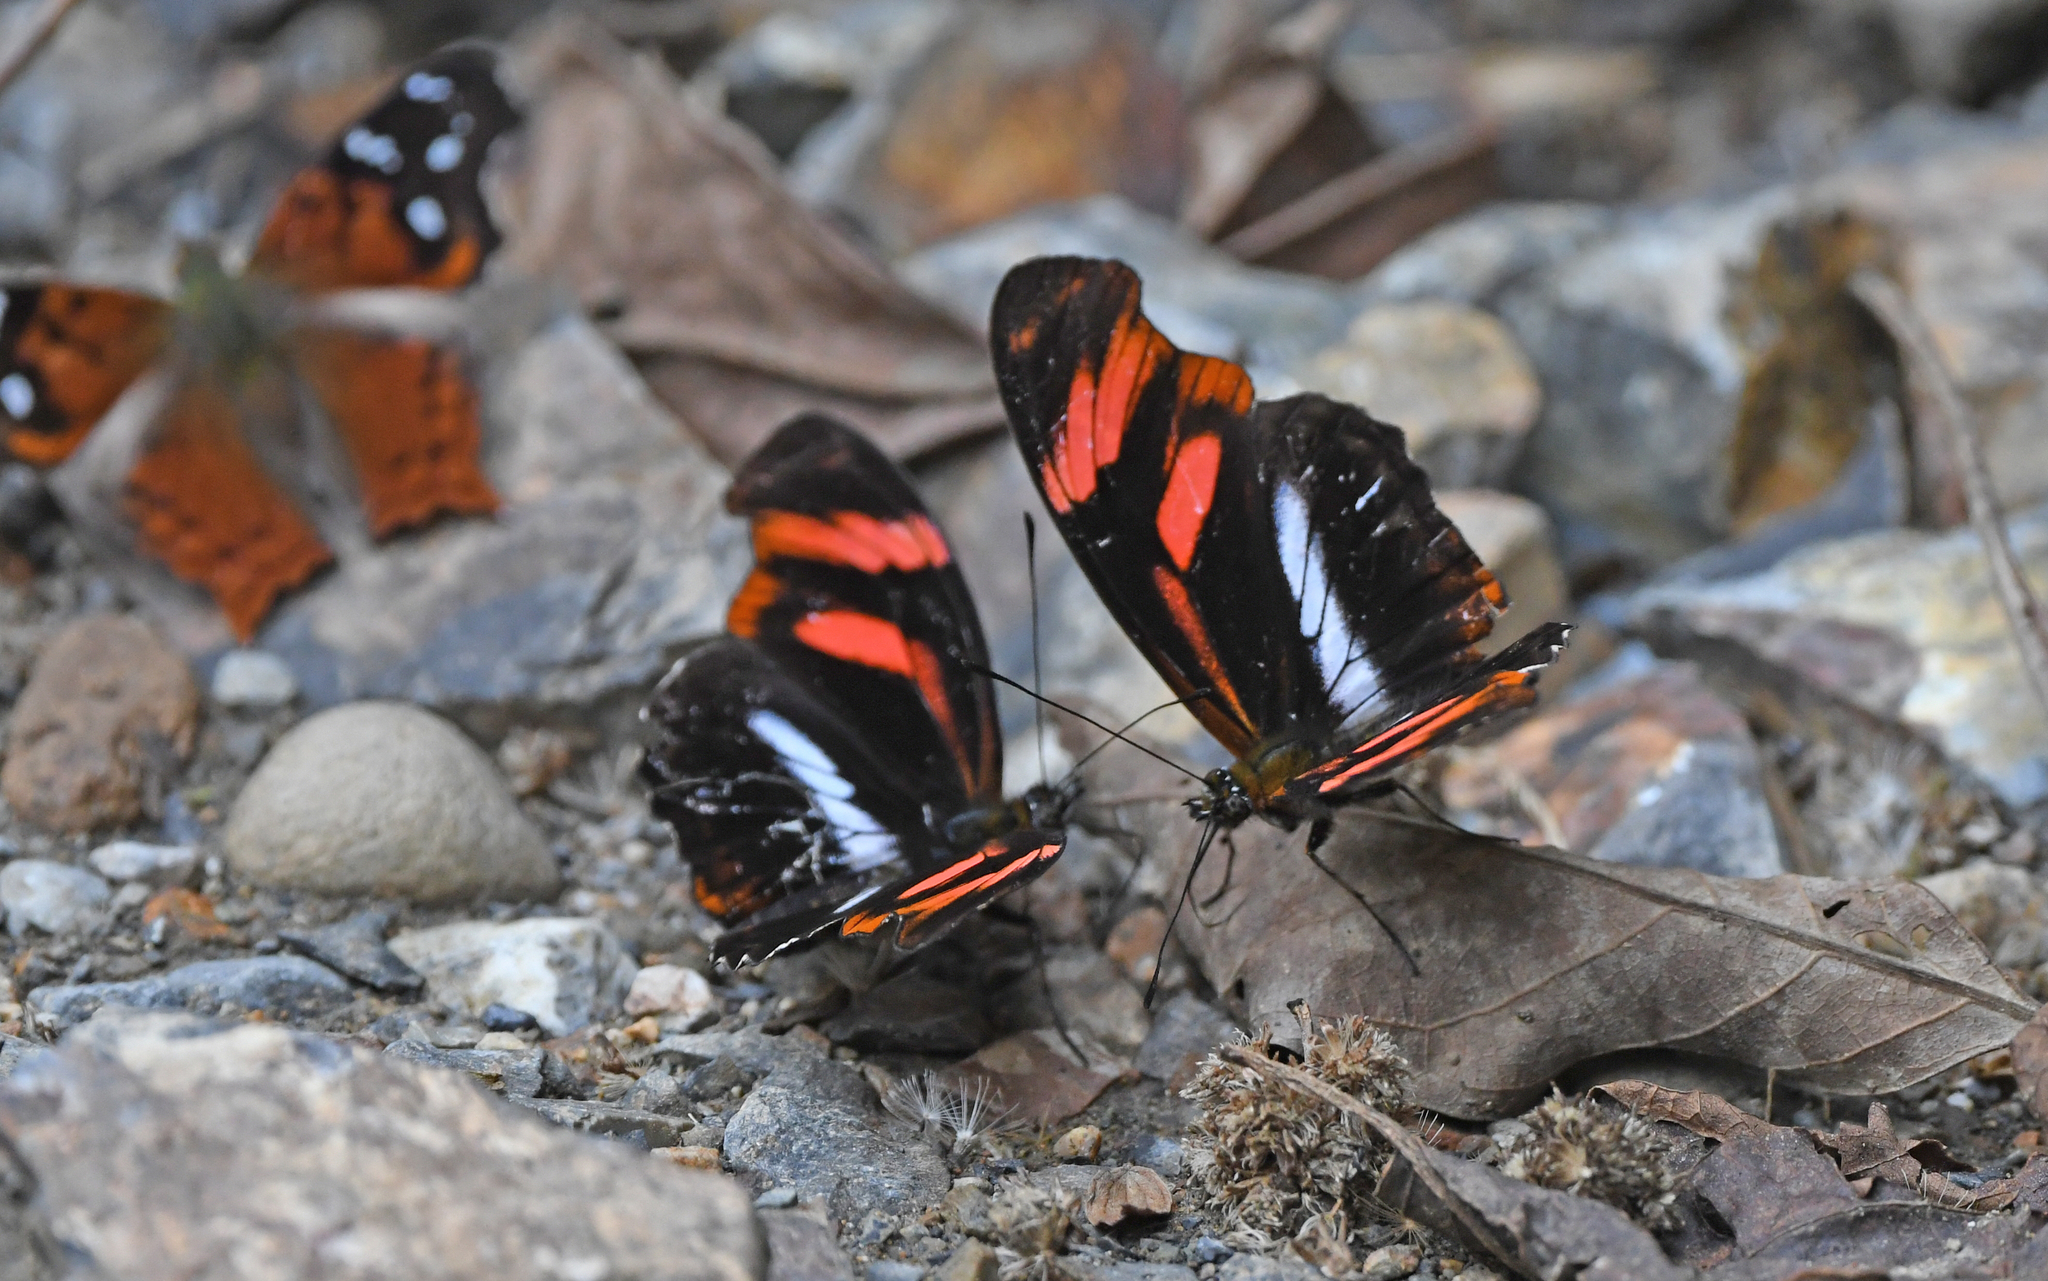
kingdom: Animalia
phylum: Arthropoda
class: Insecta
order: Lepidoptera
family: Nymphalidae
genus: Podotricha
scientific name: Podotricha telesiphe
